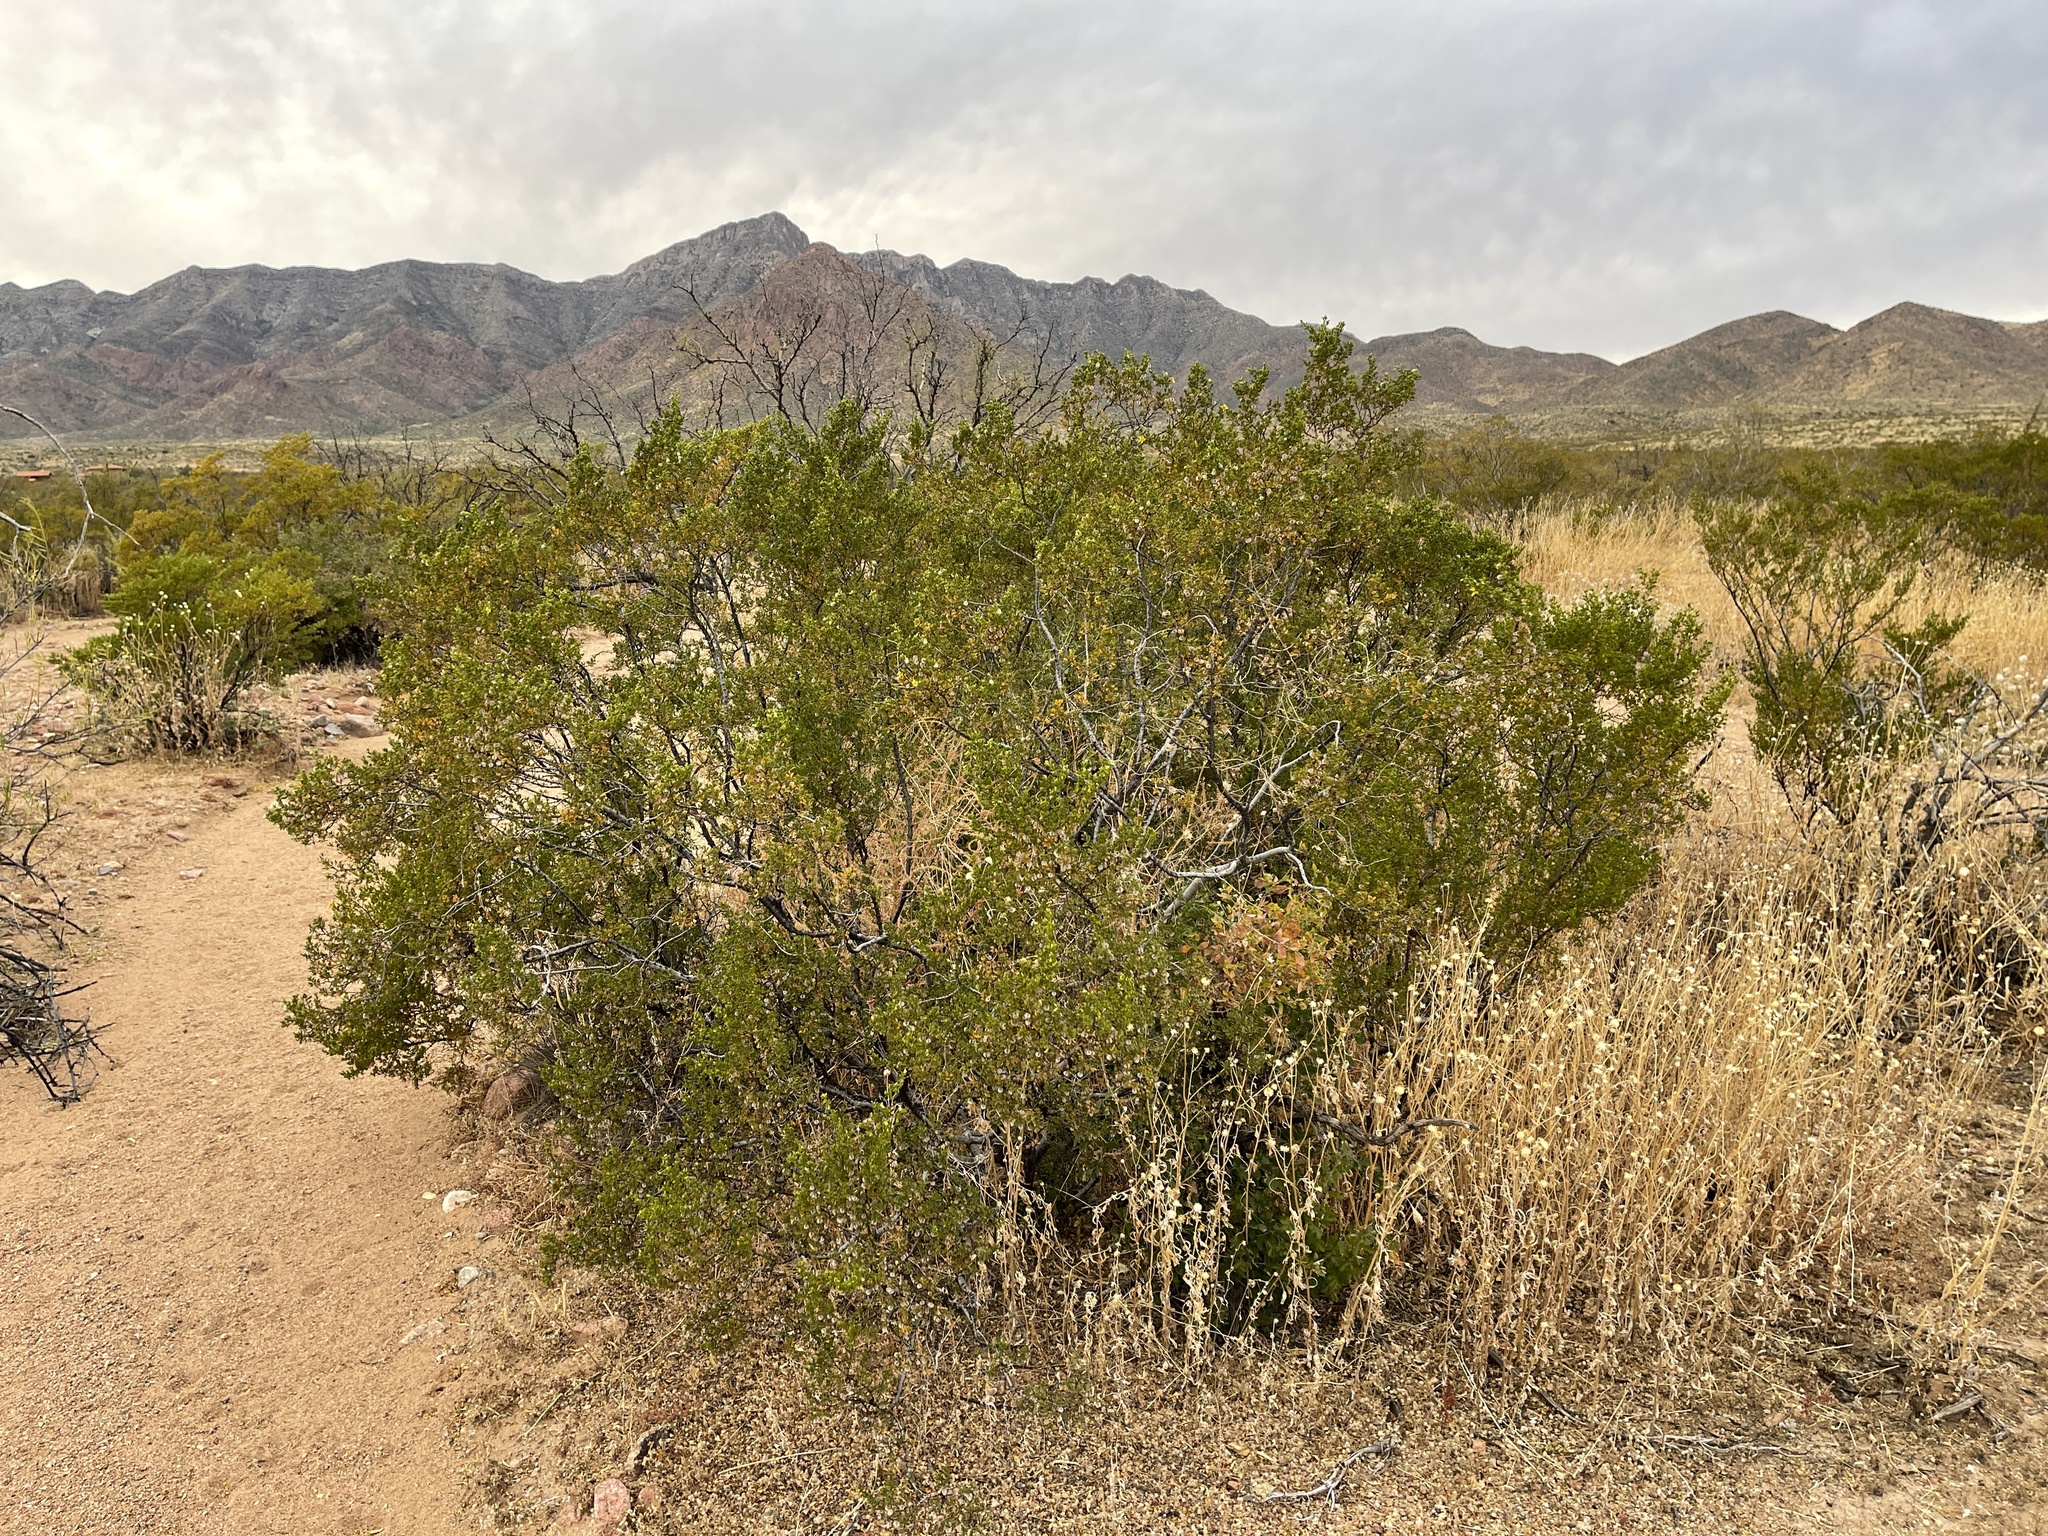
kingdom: Plantae
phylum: Tracheophyta
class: Magnoliopsida
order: Zygophyllales
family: Zygophyllaceae
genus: Larrea
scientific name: Larrea tridentata
